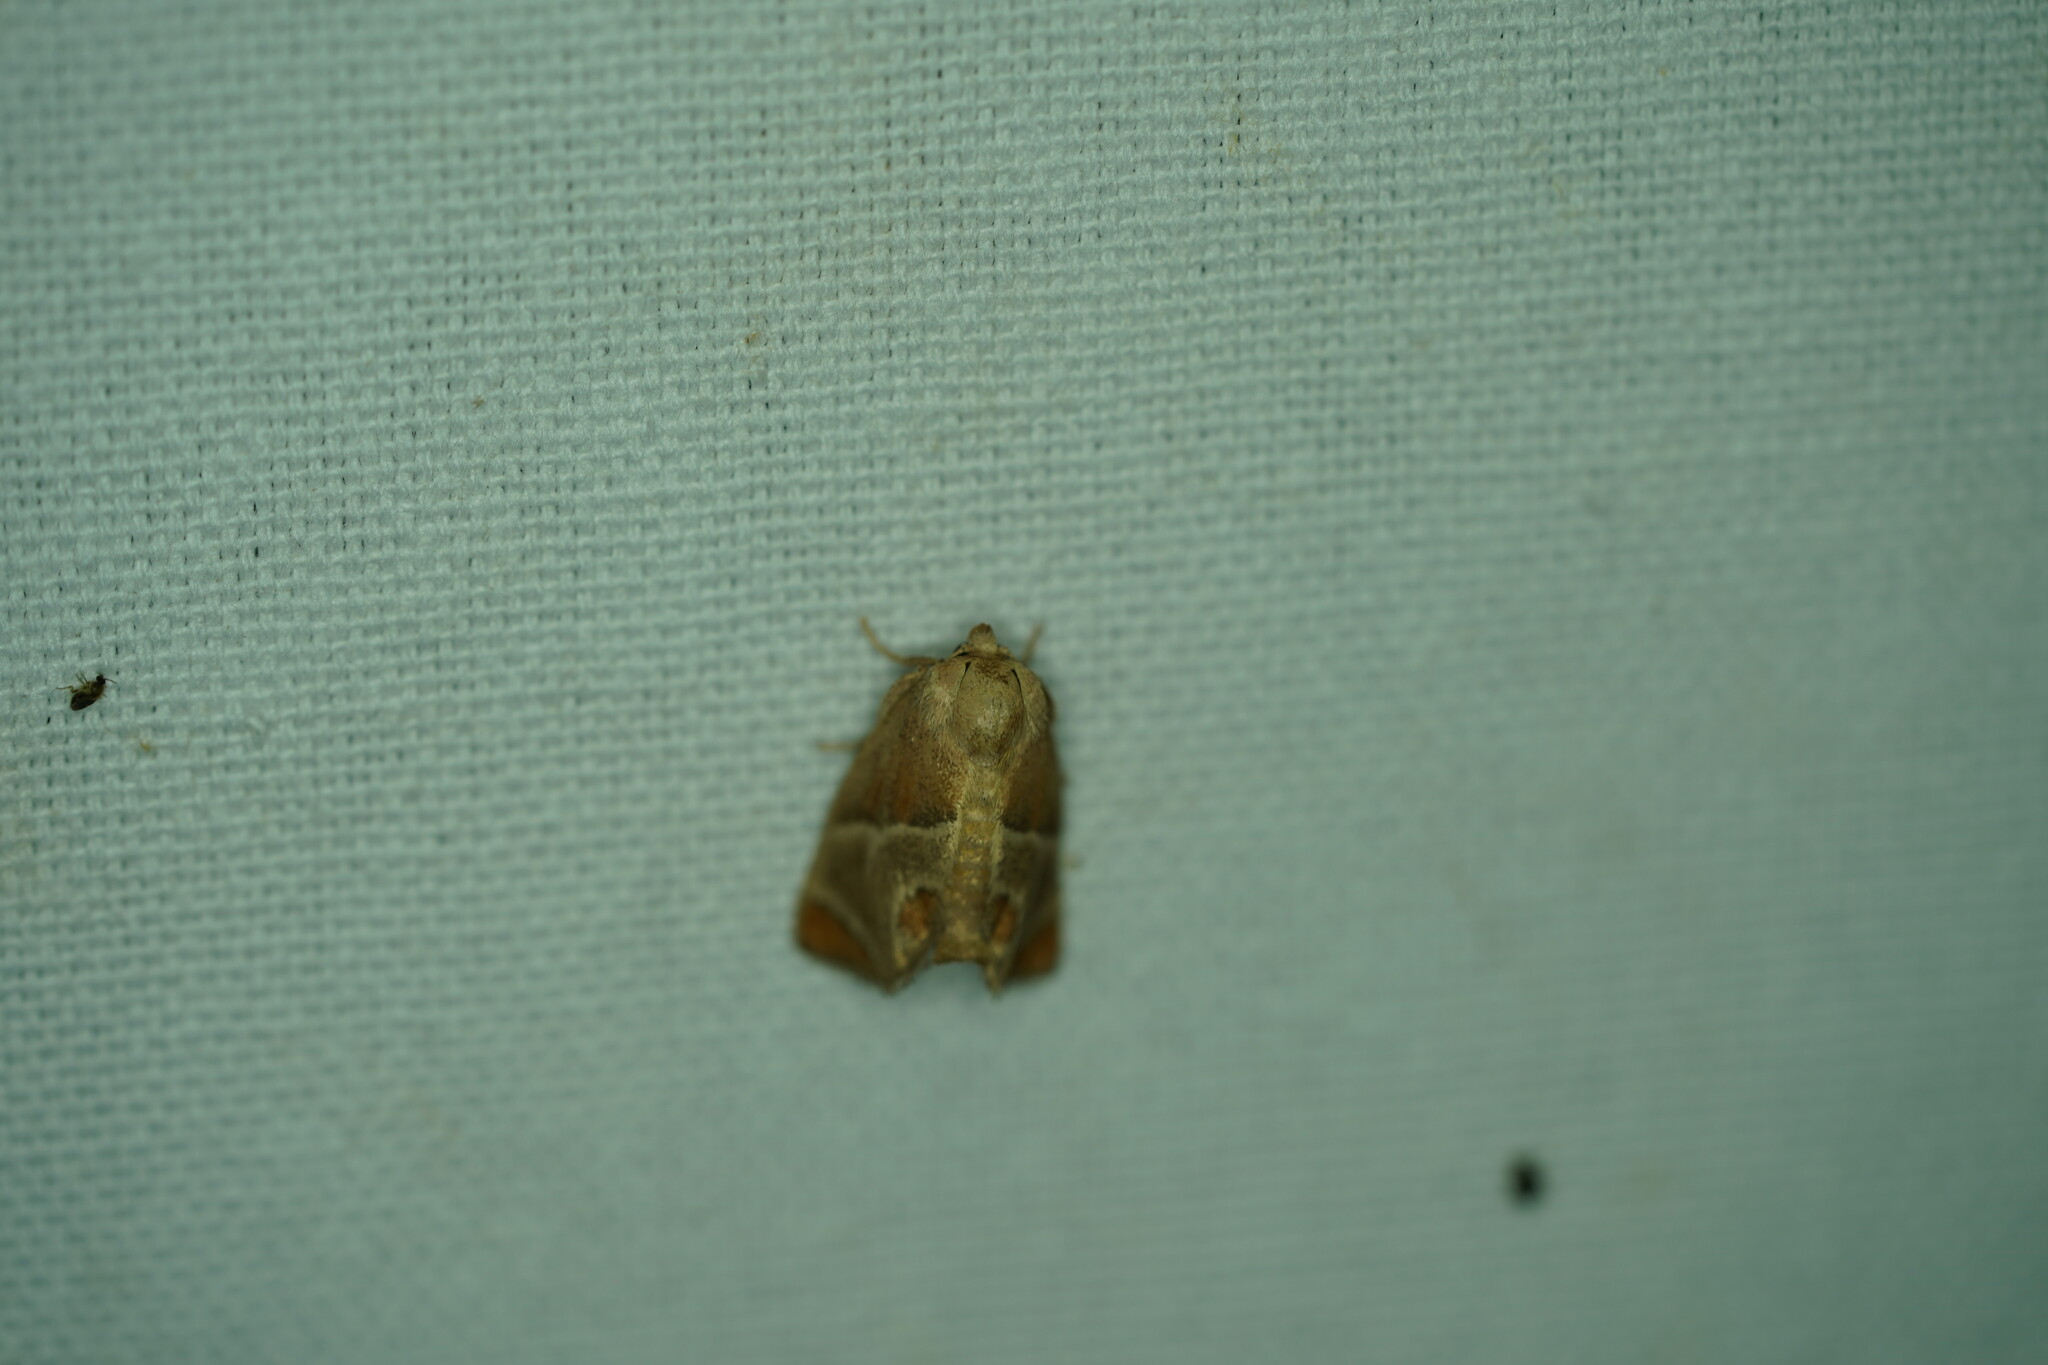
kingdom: Animalia
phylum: Arthropoda
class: Insecta
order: Lepidoptera
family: Limacodidae
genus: Apoda
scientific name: Apoda biguttata
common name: Shagreened slug moth
